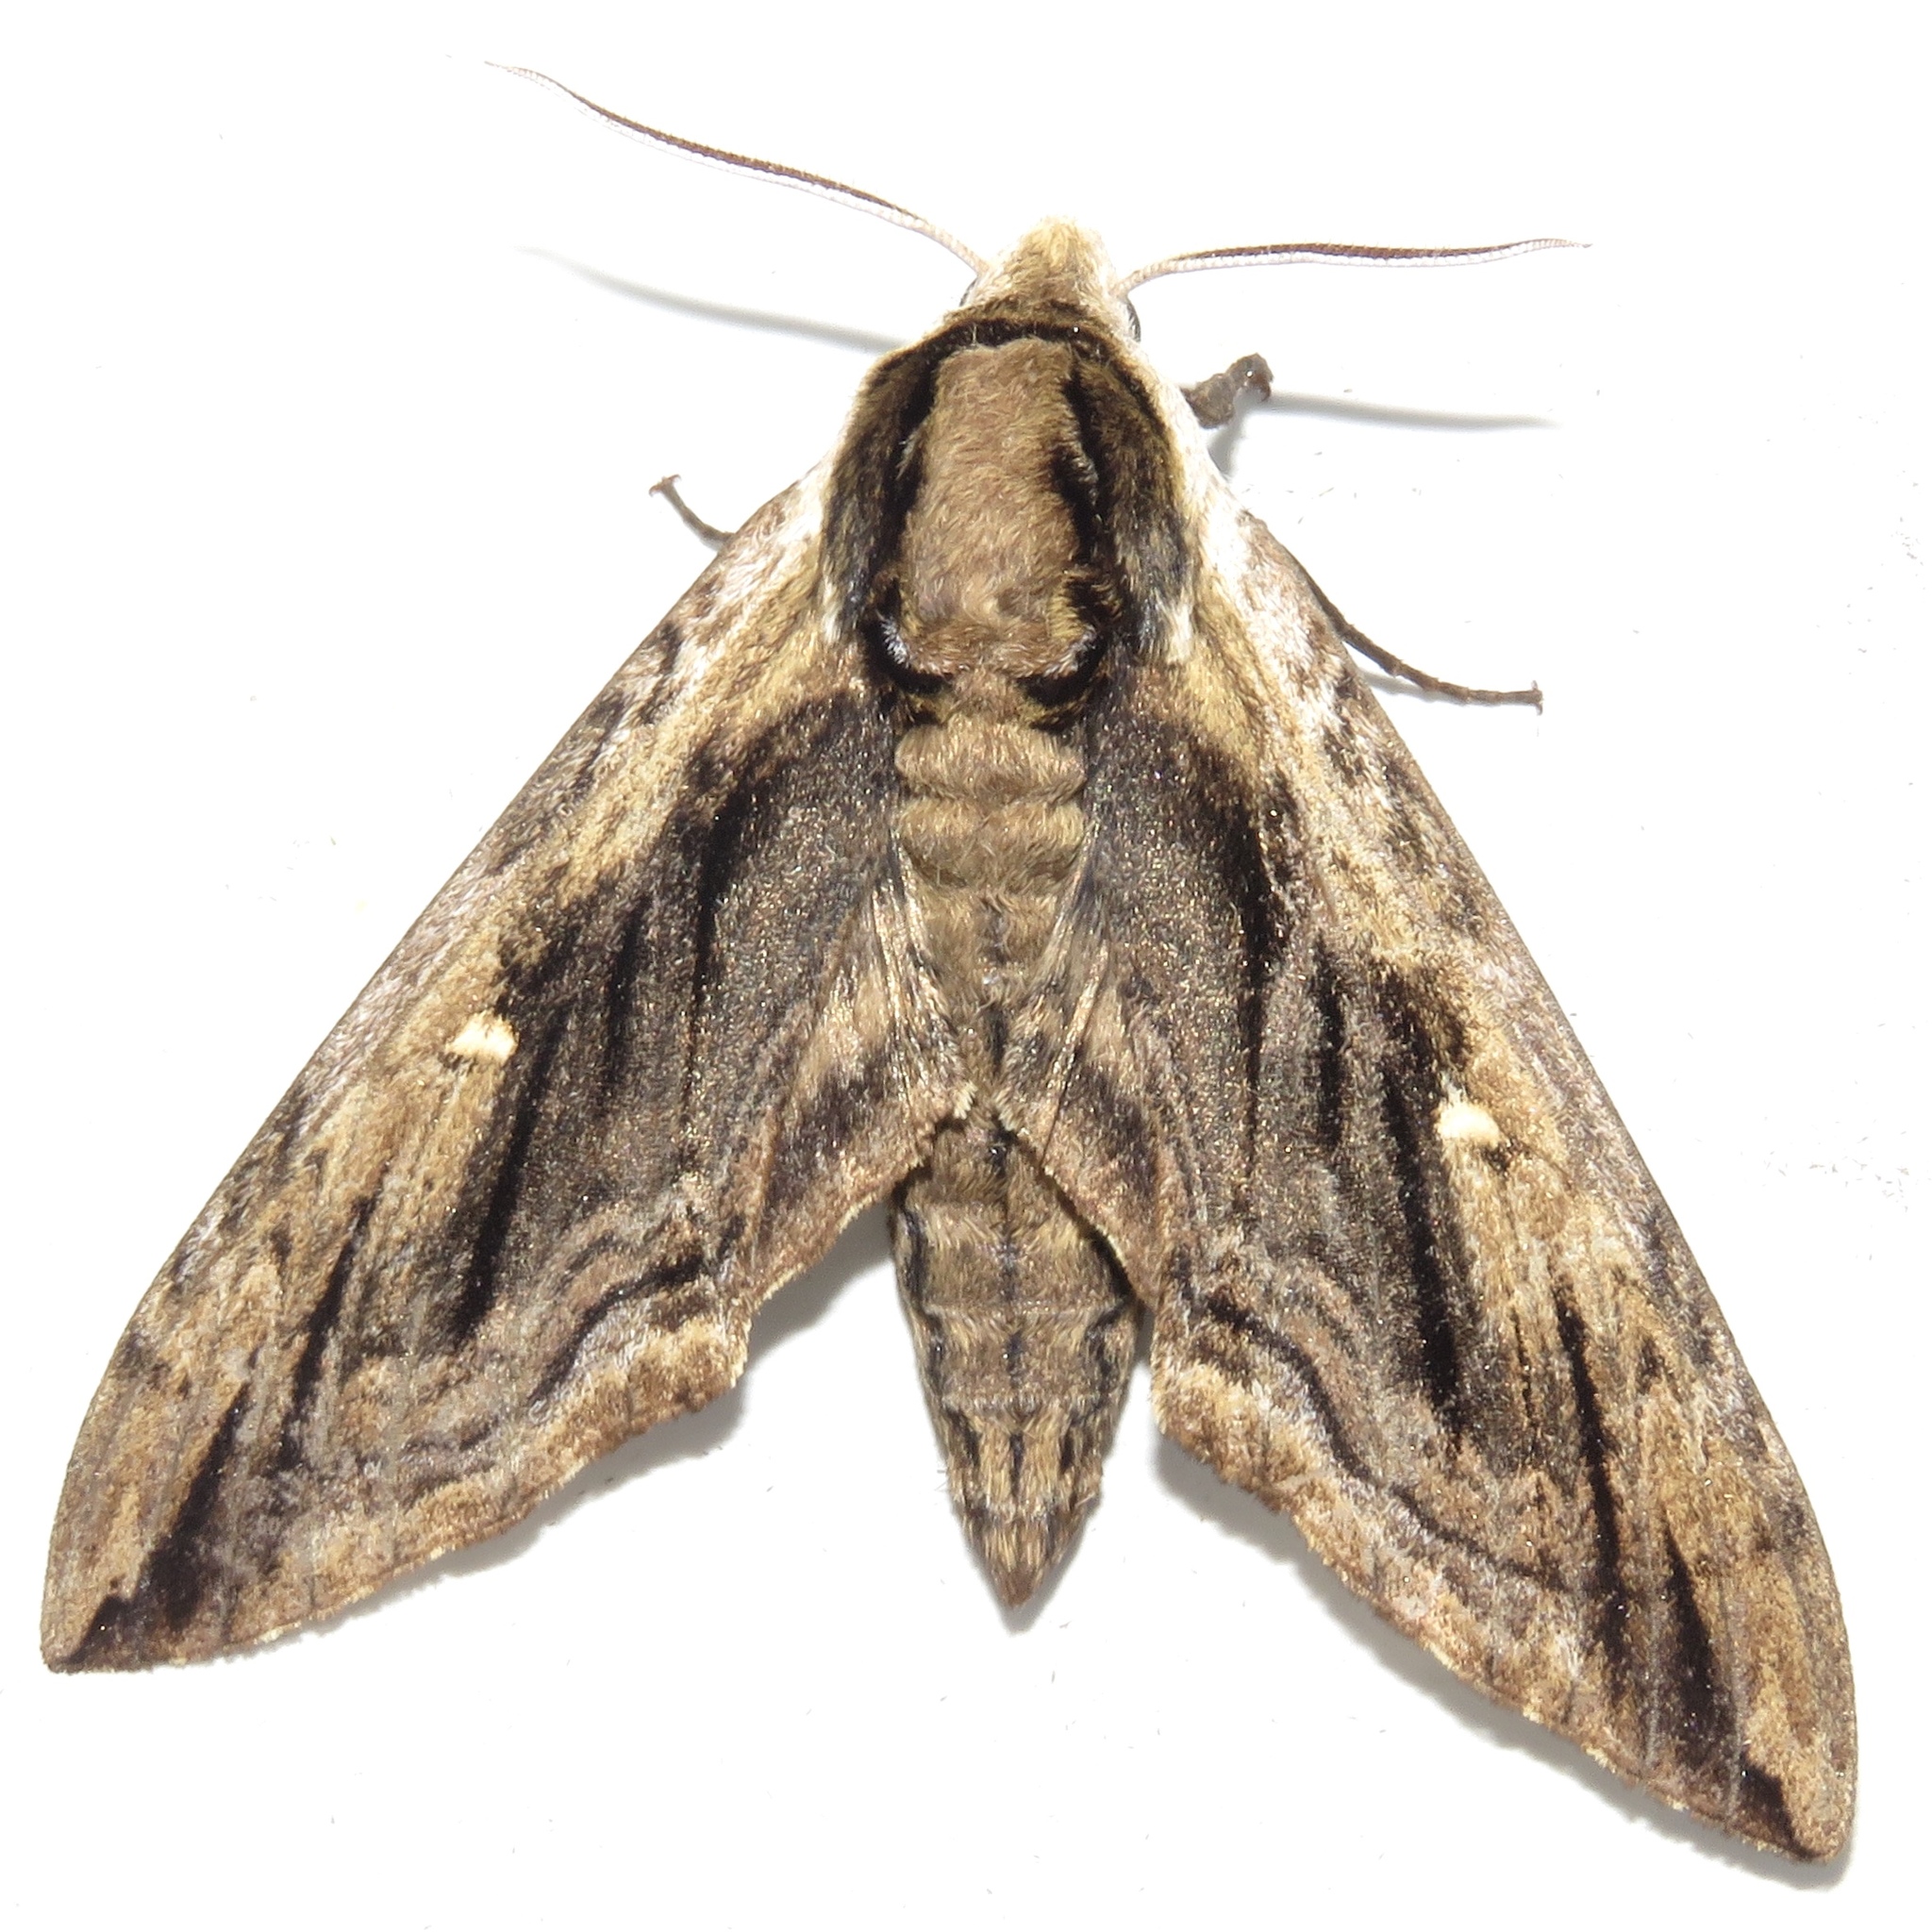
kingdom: Animalia
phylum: Arthropoda
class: Insecta
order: Lepidoptera
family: Sphingidae
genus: Ceratomia
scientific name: Ceratomia amyntor
